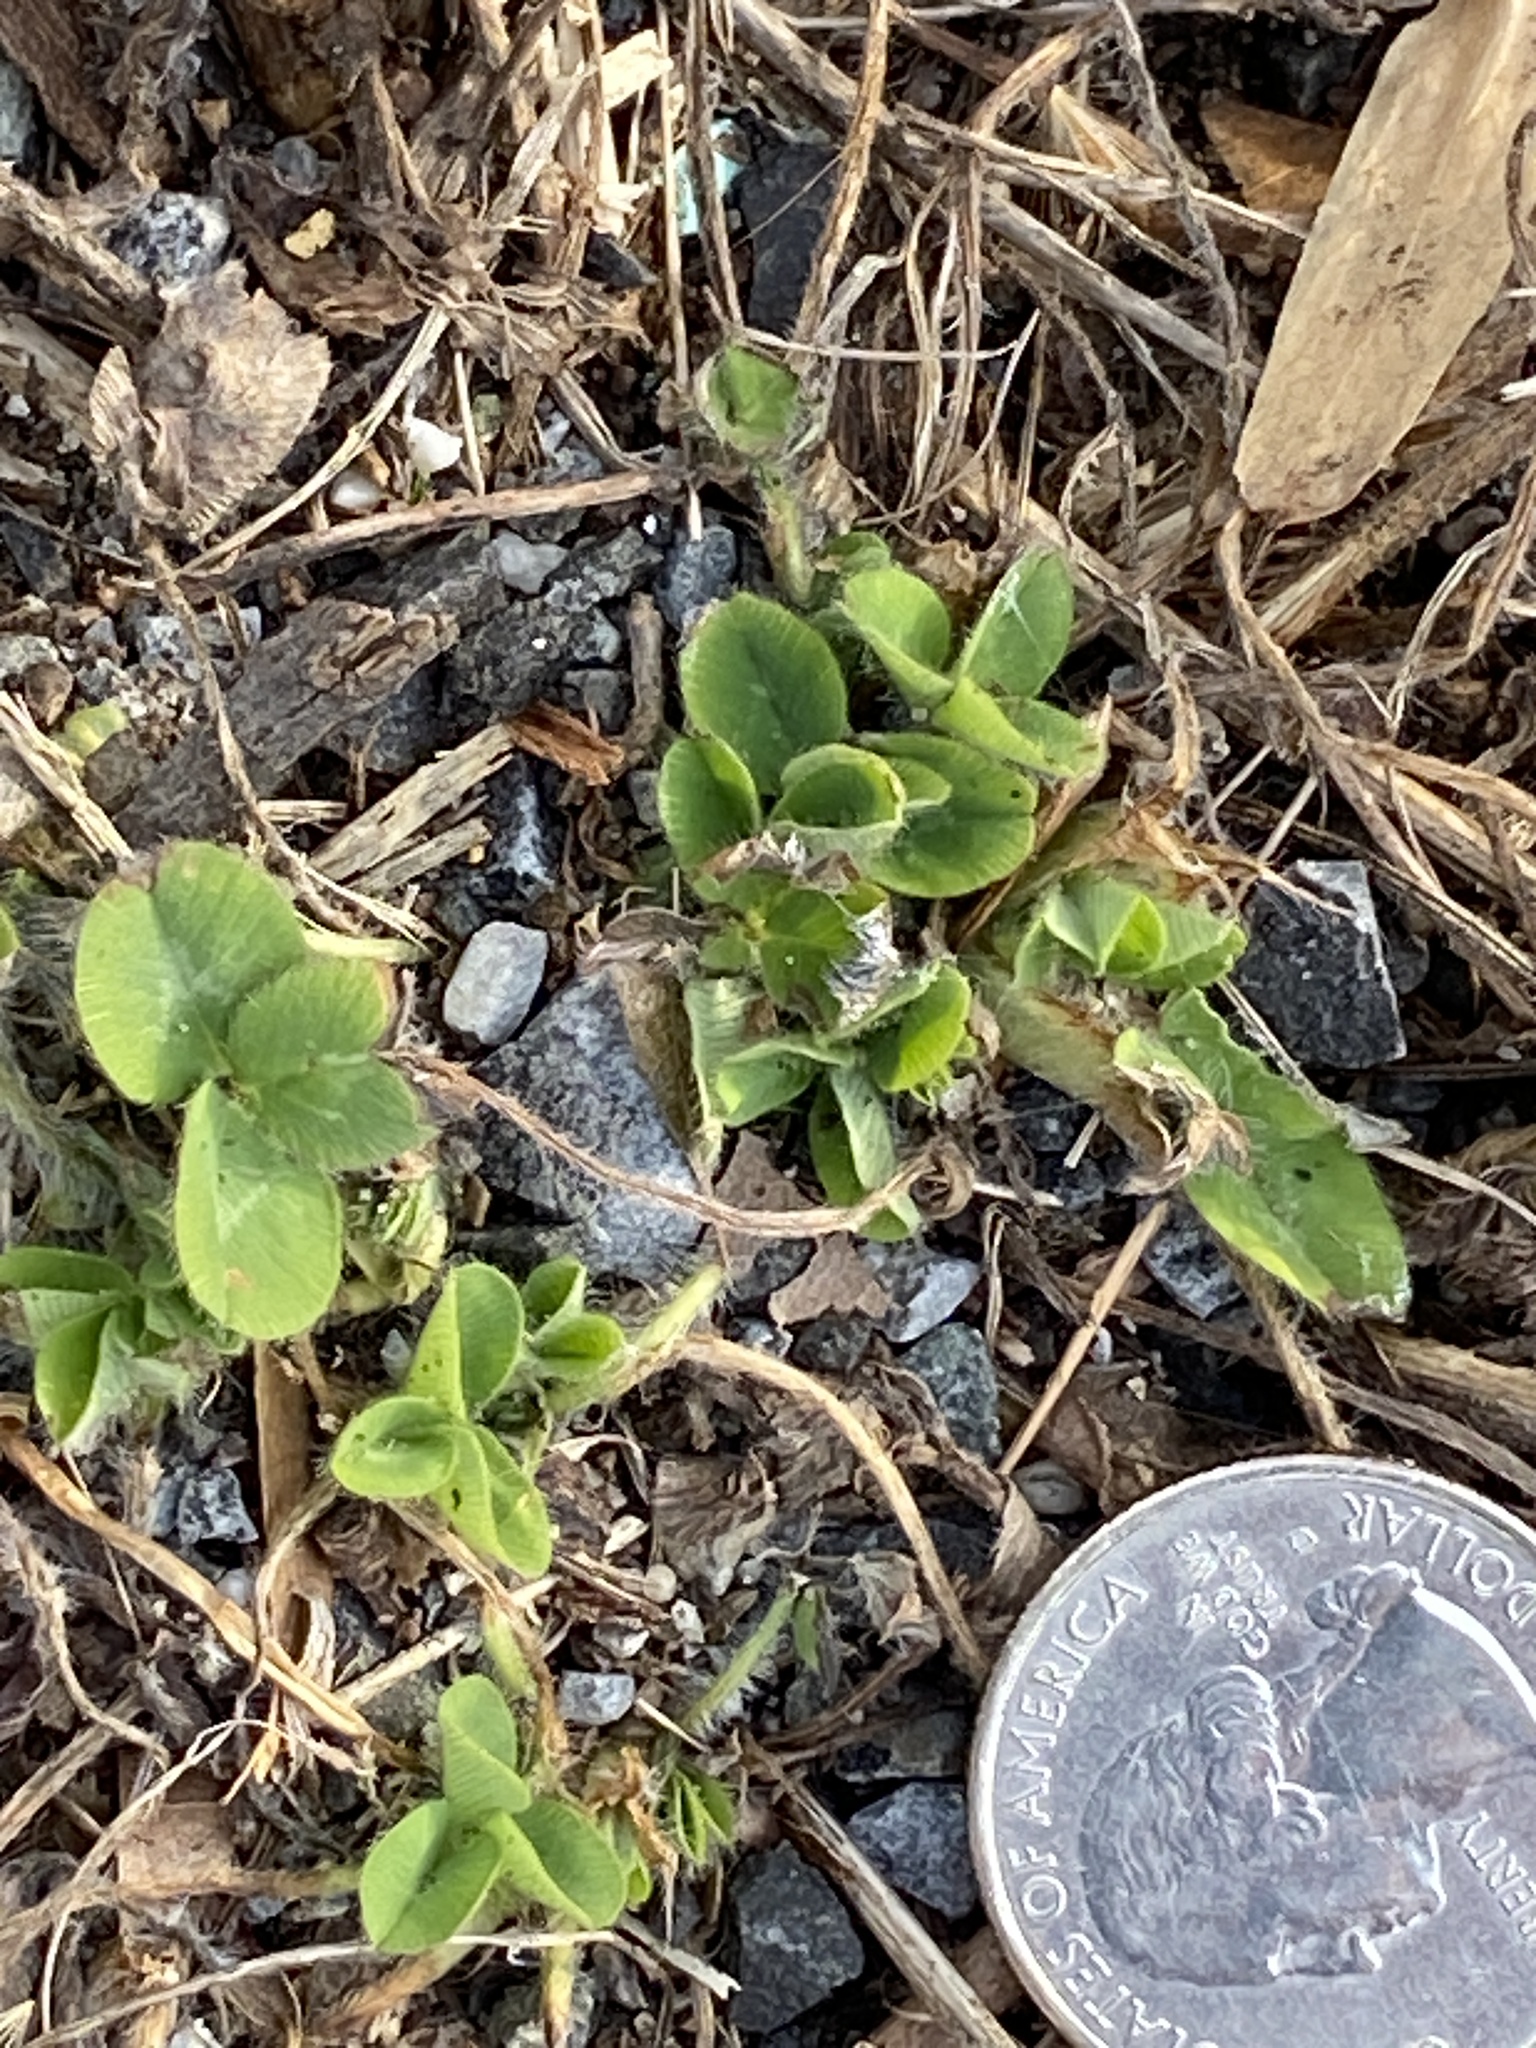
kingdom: Plantae
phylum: Tracheophyta
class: Magnoliopsida
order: Fabales
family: Fabaceae
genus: Trifolium
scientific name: Trifolium pratense
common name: Red clover
